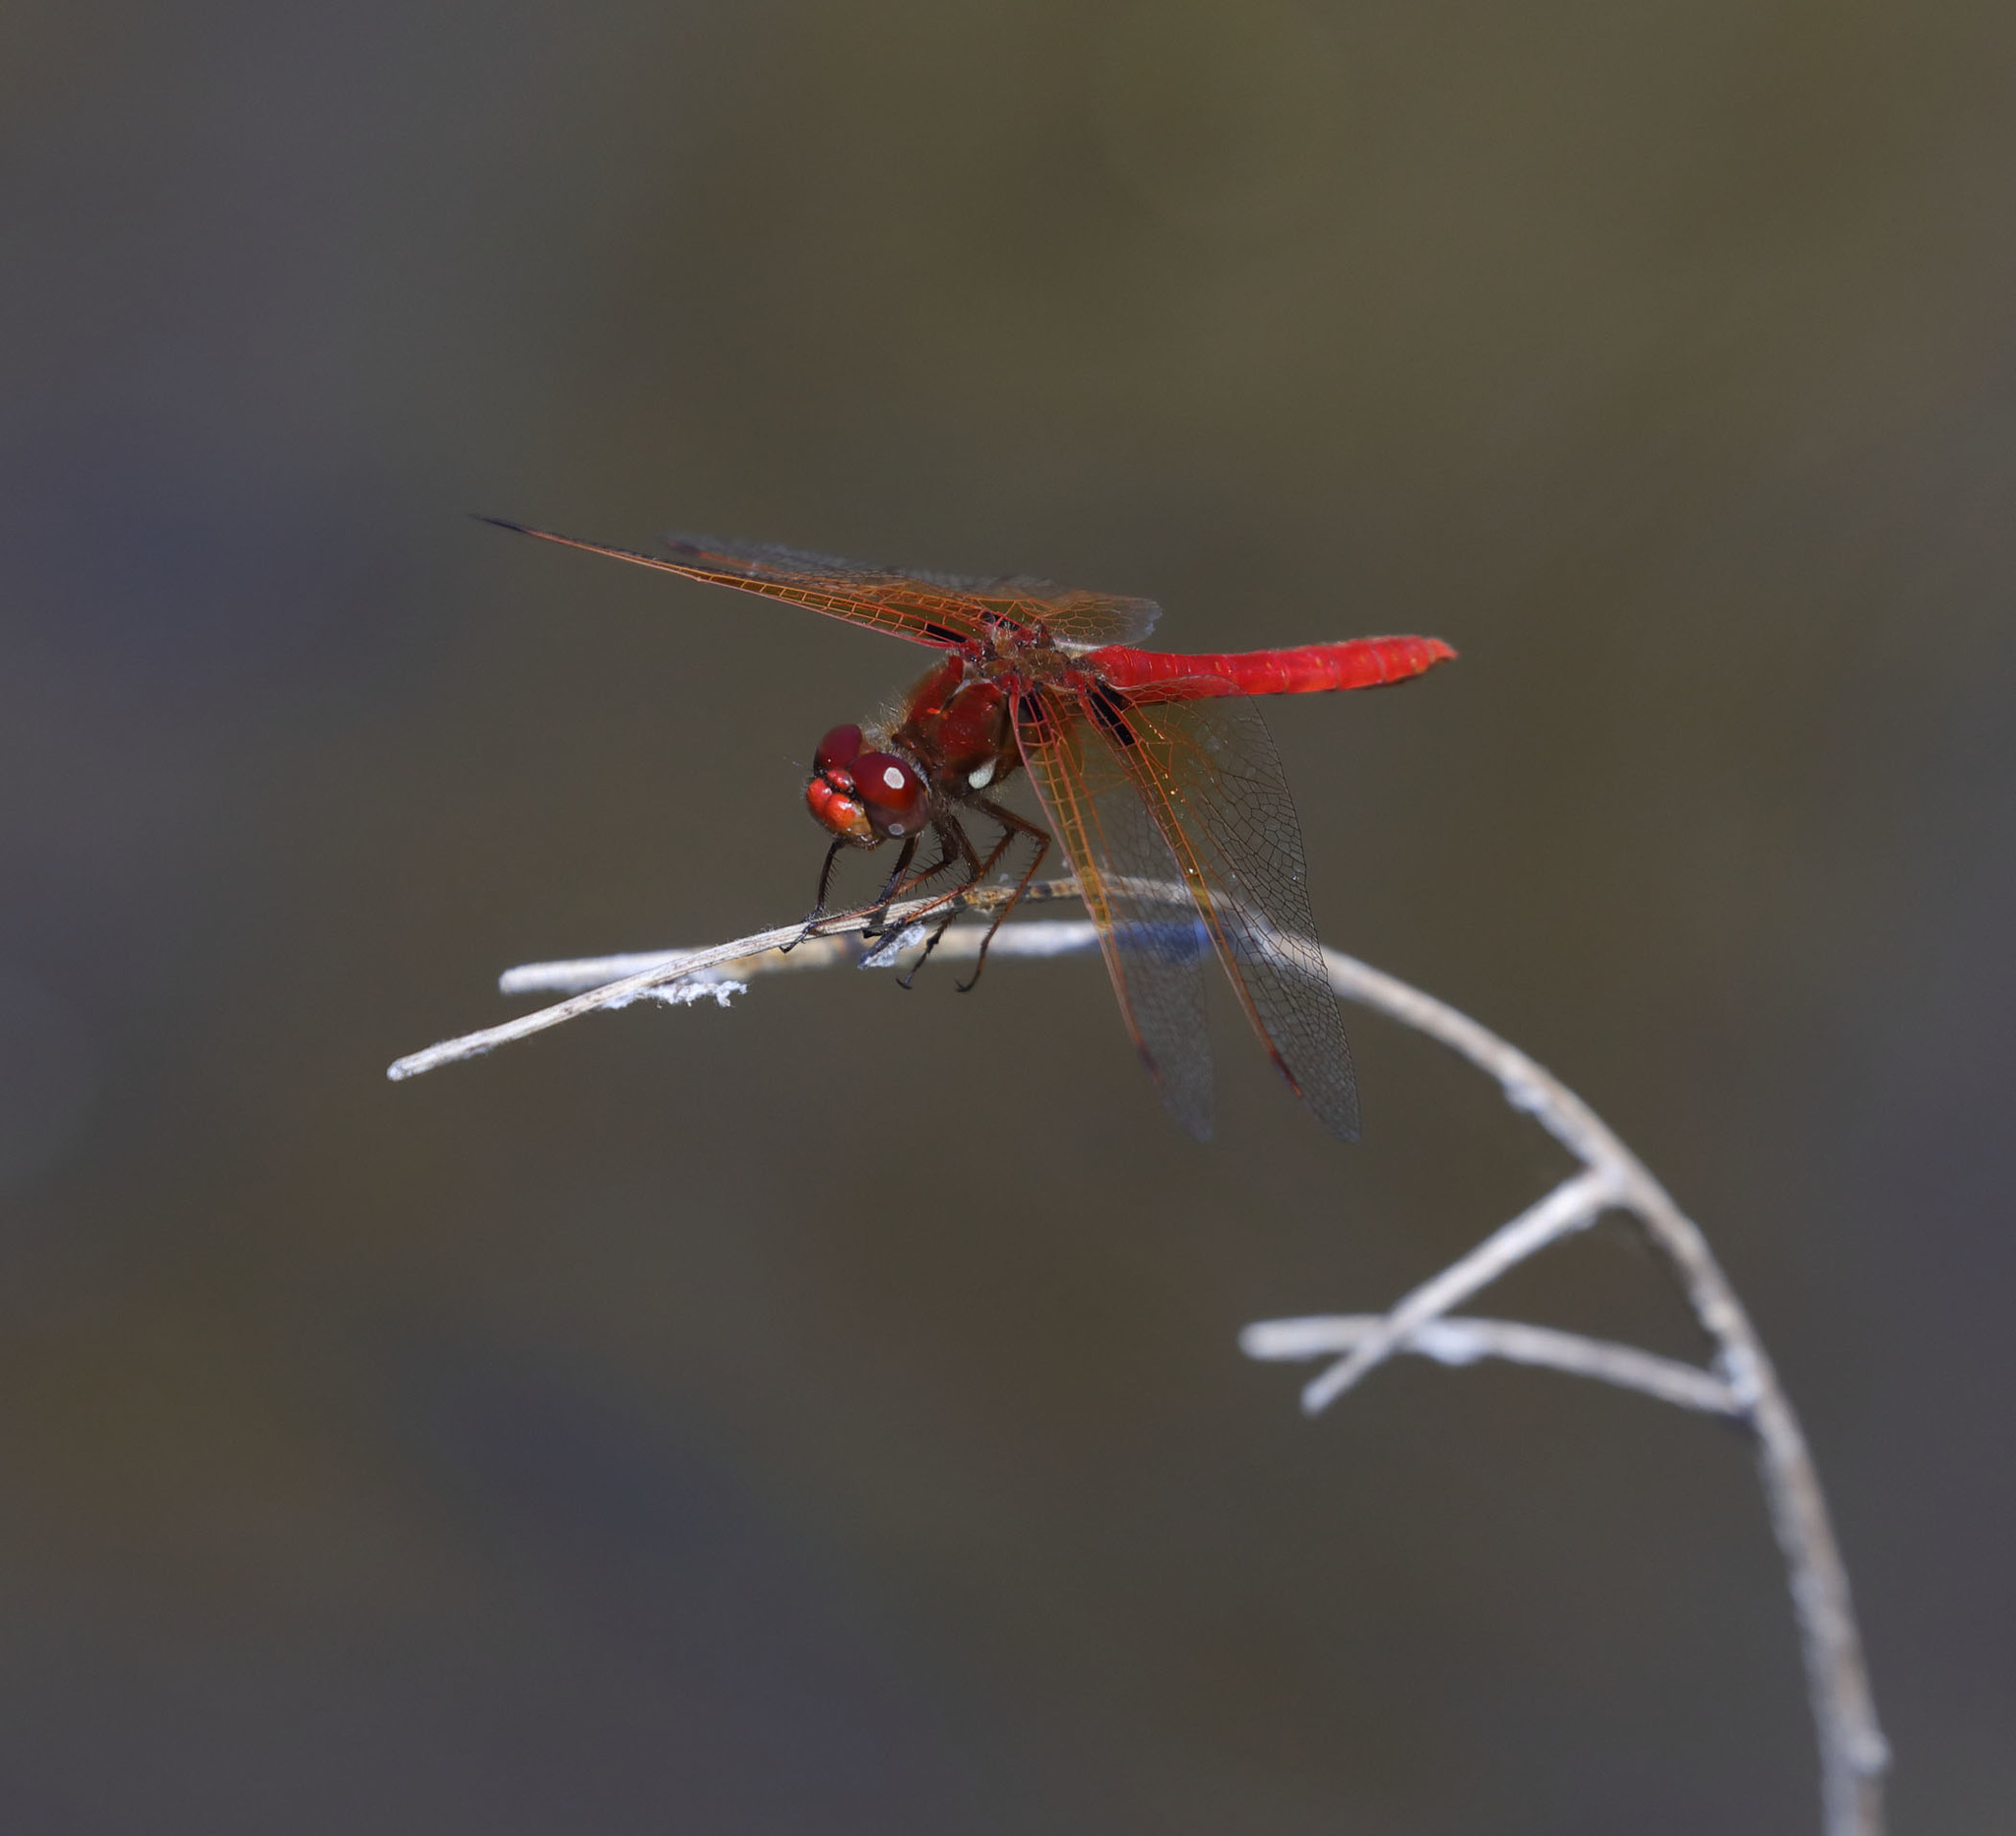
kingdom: Animalia
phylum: Arthropoda
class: Insecta
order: Odonata
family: Libellulidae
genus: Sympetrum
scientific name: Sympetrum illotum
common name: Cardinal meadowhawk
